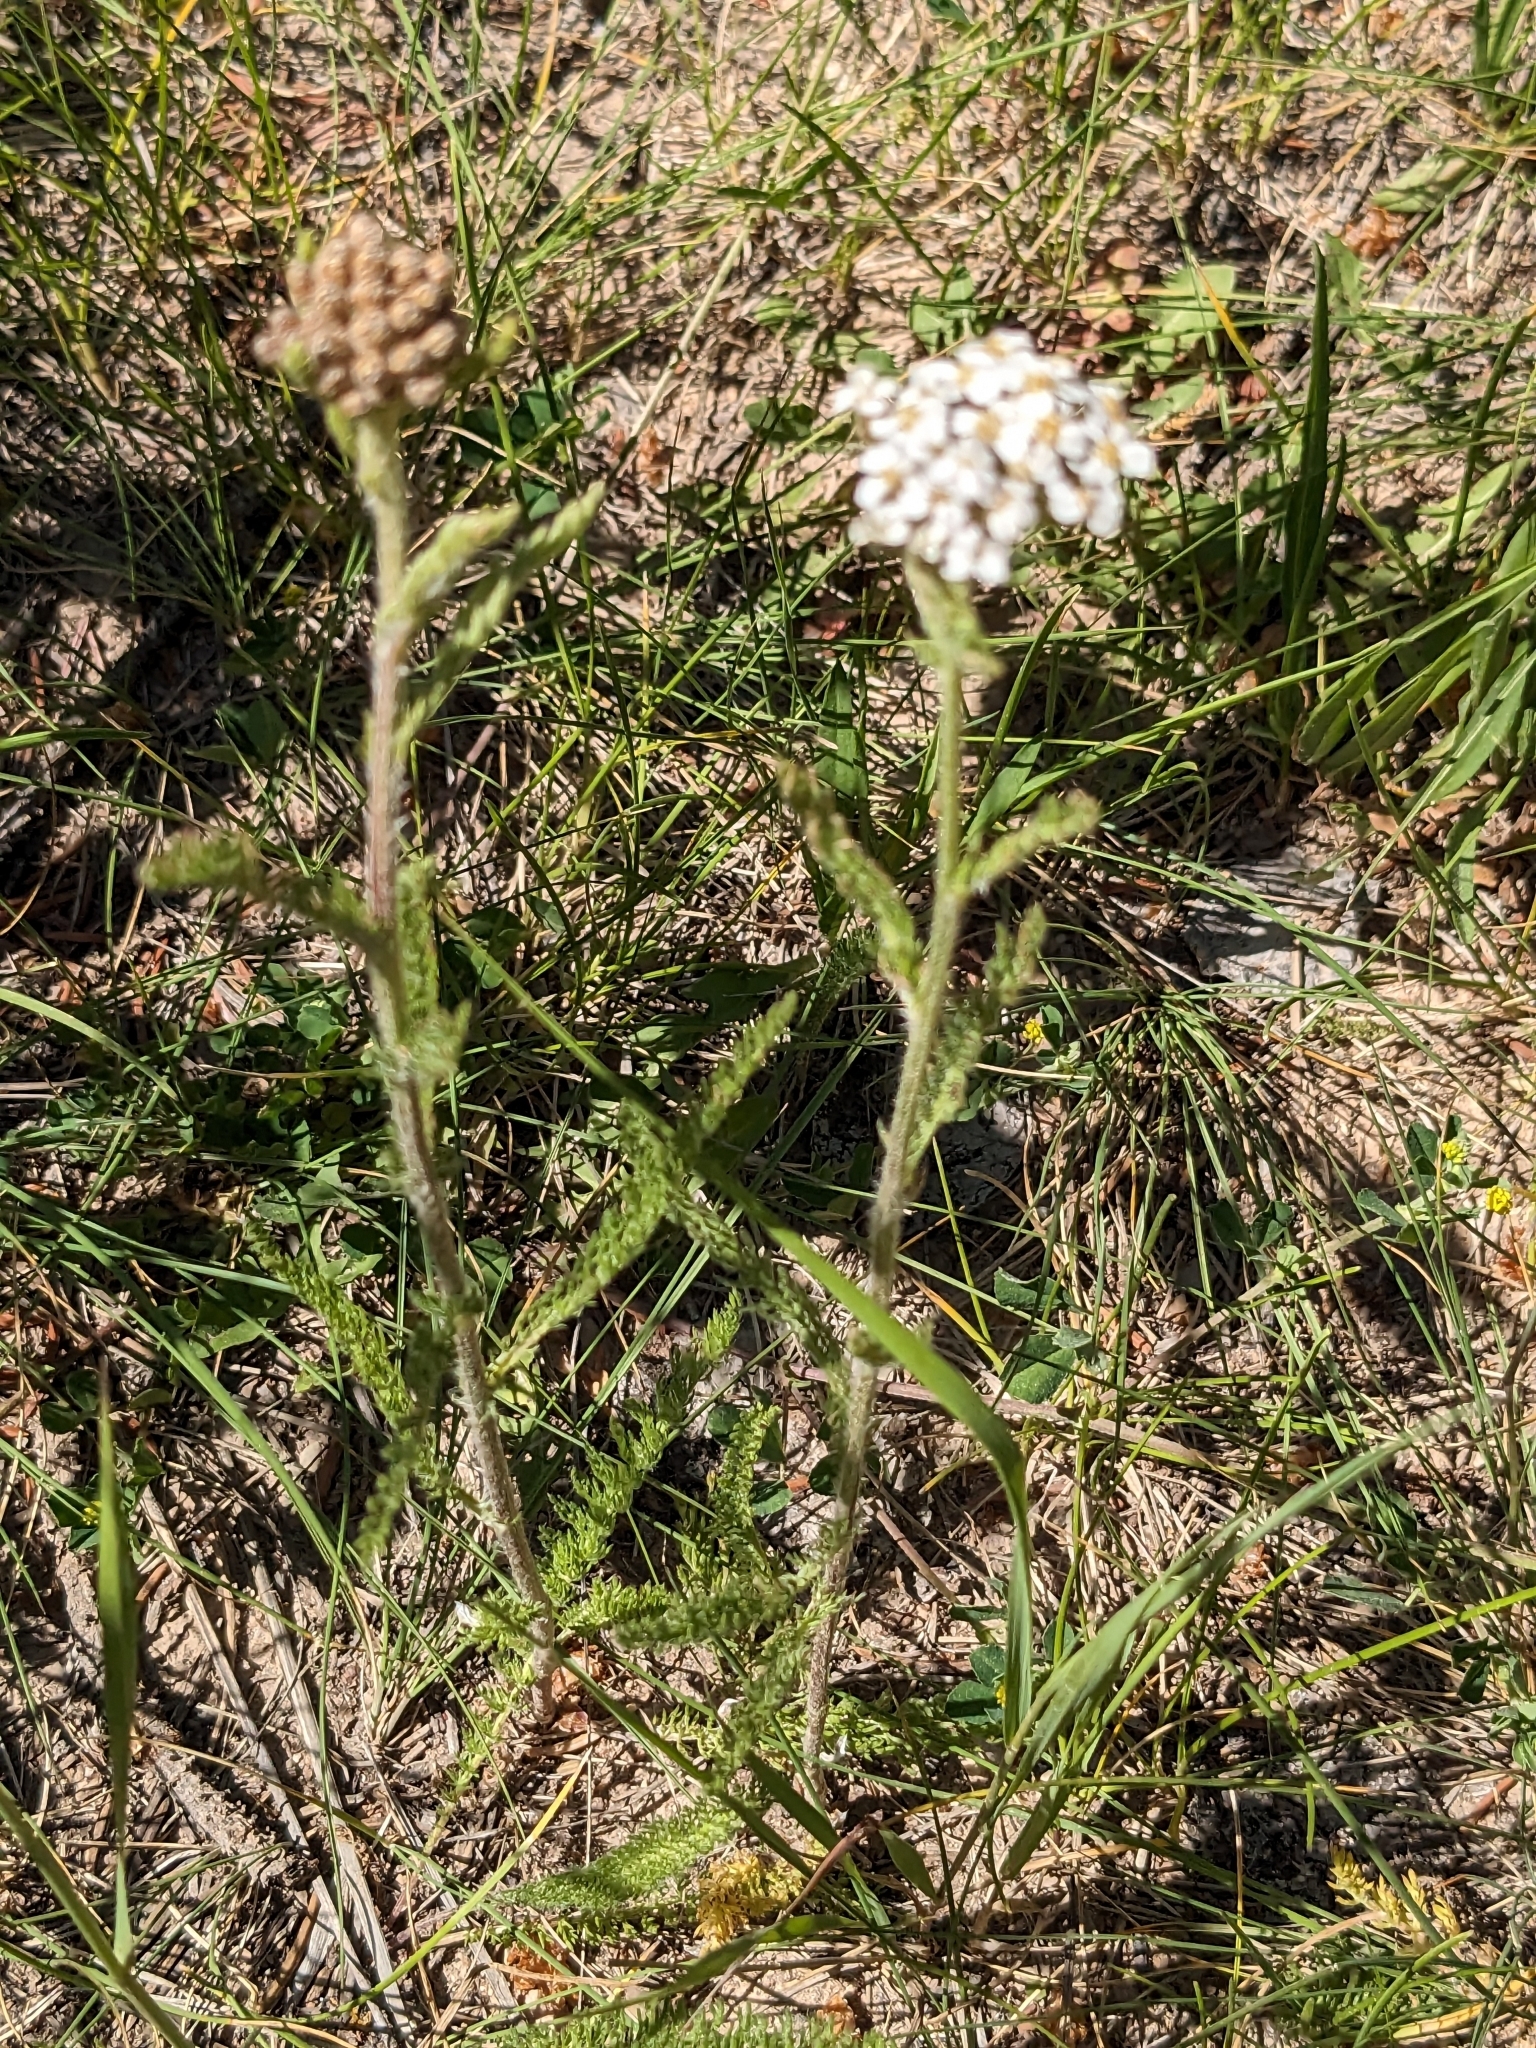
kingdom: Plantae
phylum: Tracheophyta
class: Magnoliopsida
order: Asterales
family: Asteraceae
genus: Achillea
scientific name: Achillea millefolium
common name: Yarrow
